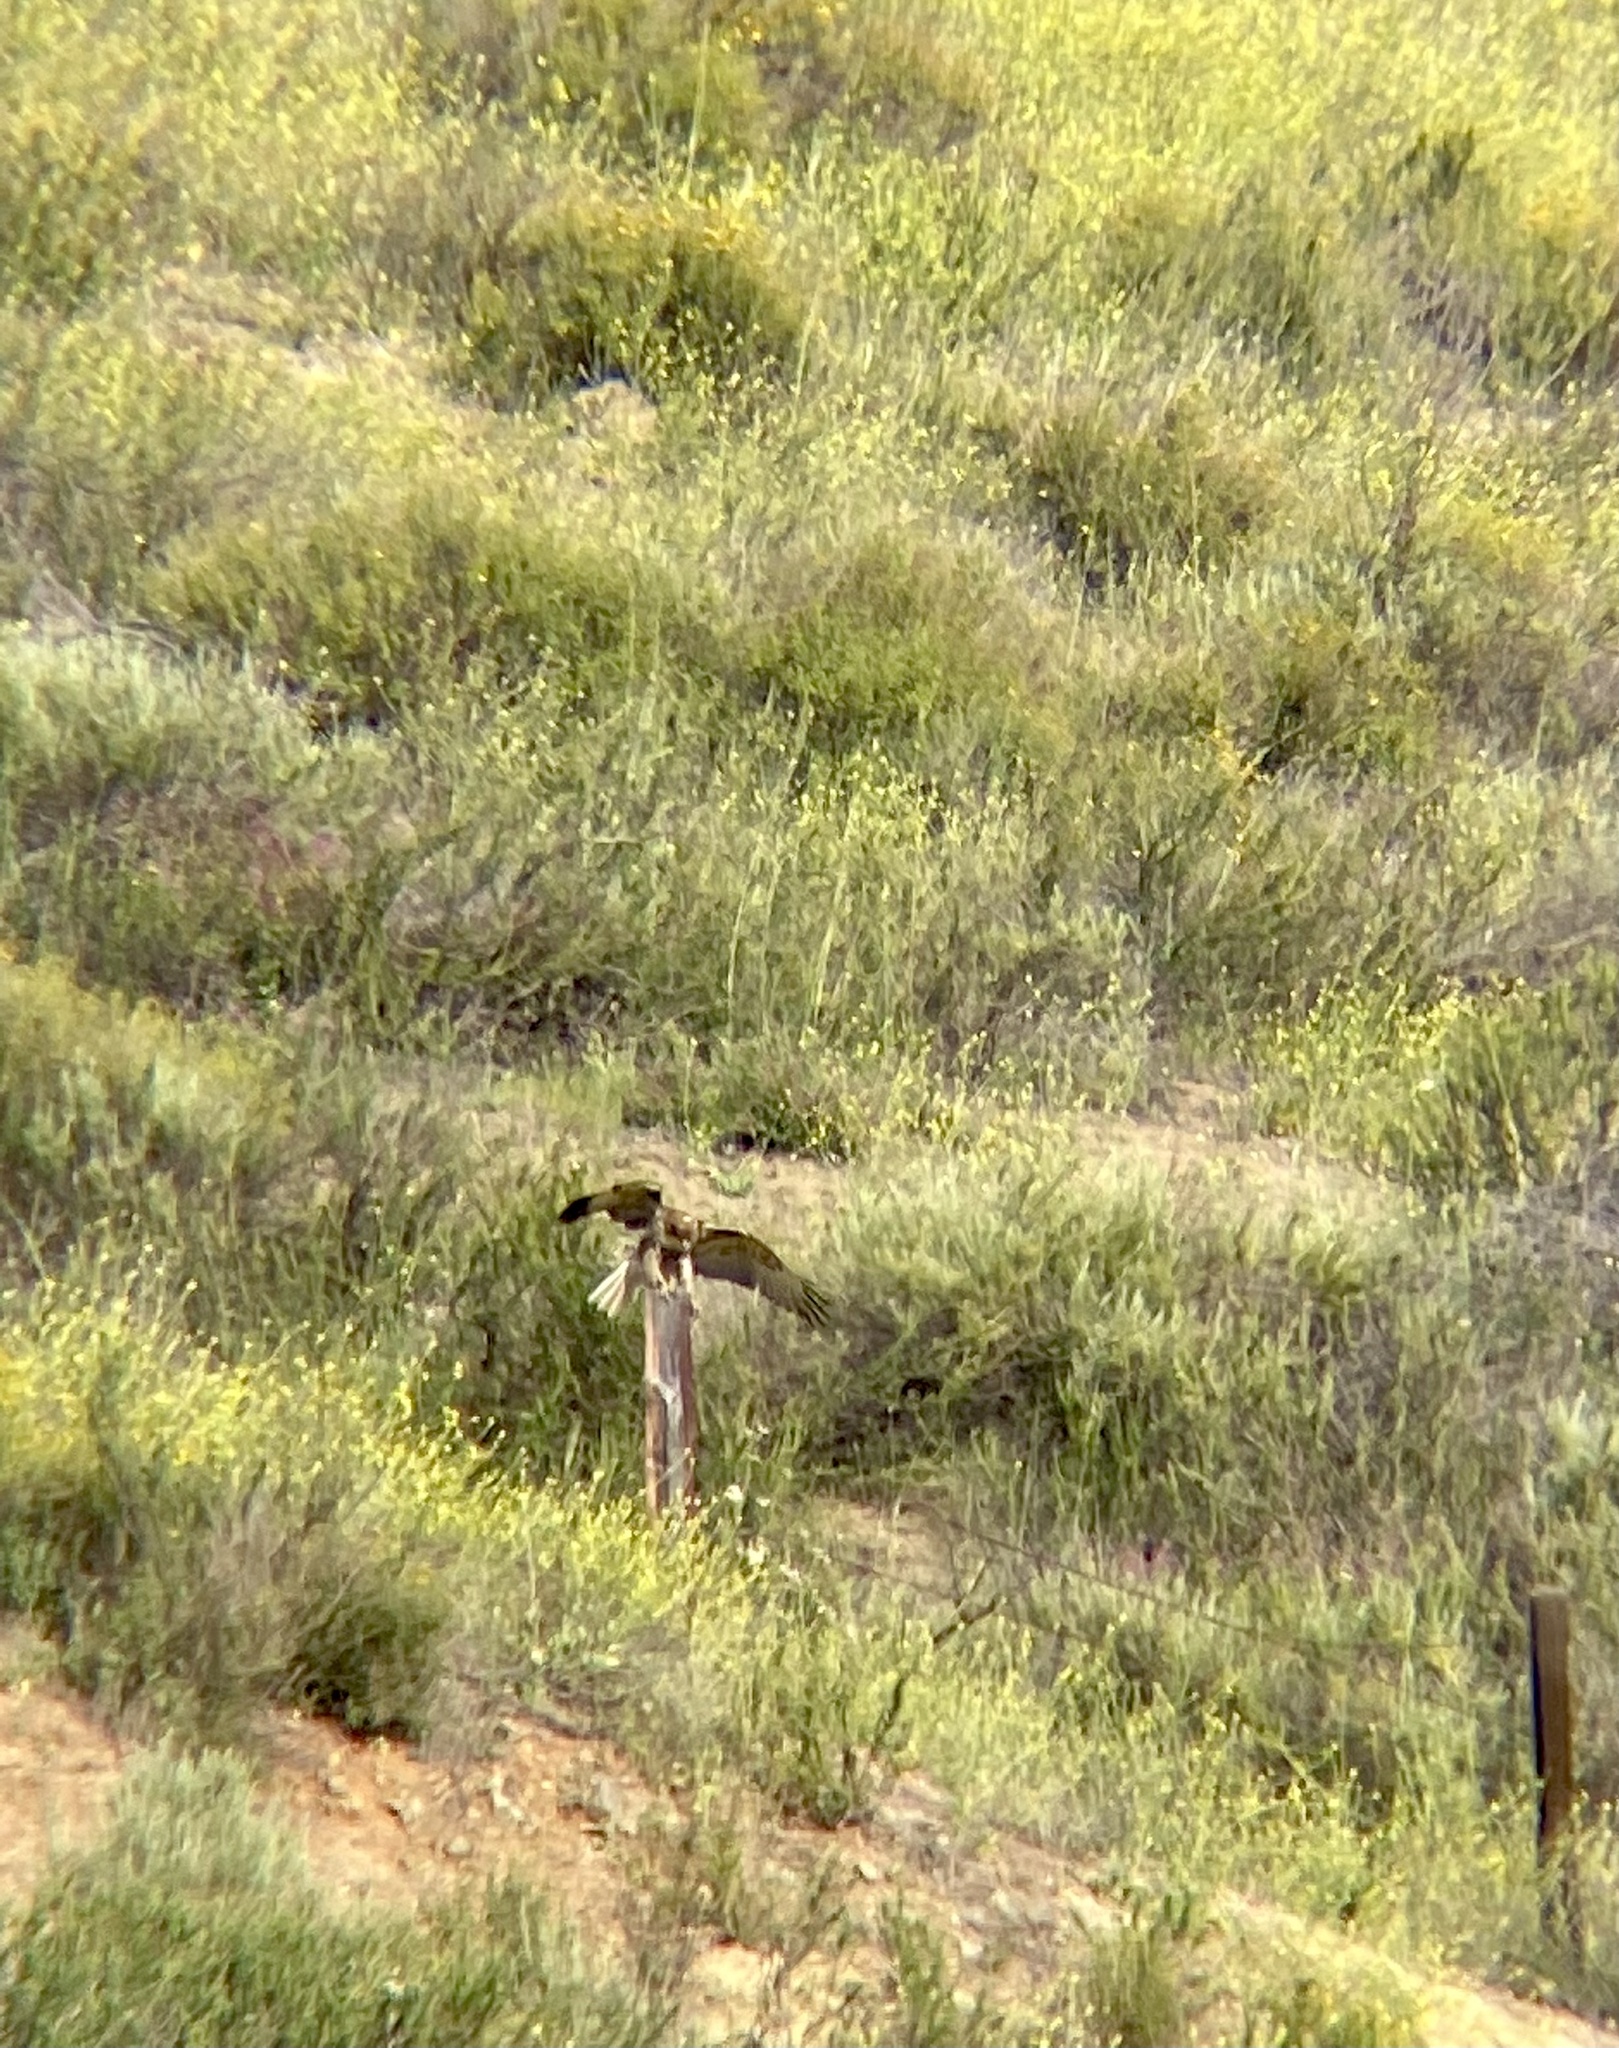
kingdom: Animalia
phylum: Chordata
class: Aves
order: Accipitriformes
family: Accipitridae
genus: Buteo
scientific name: Buteo jamaicensis
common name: Red-tailed hawk
